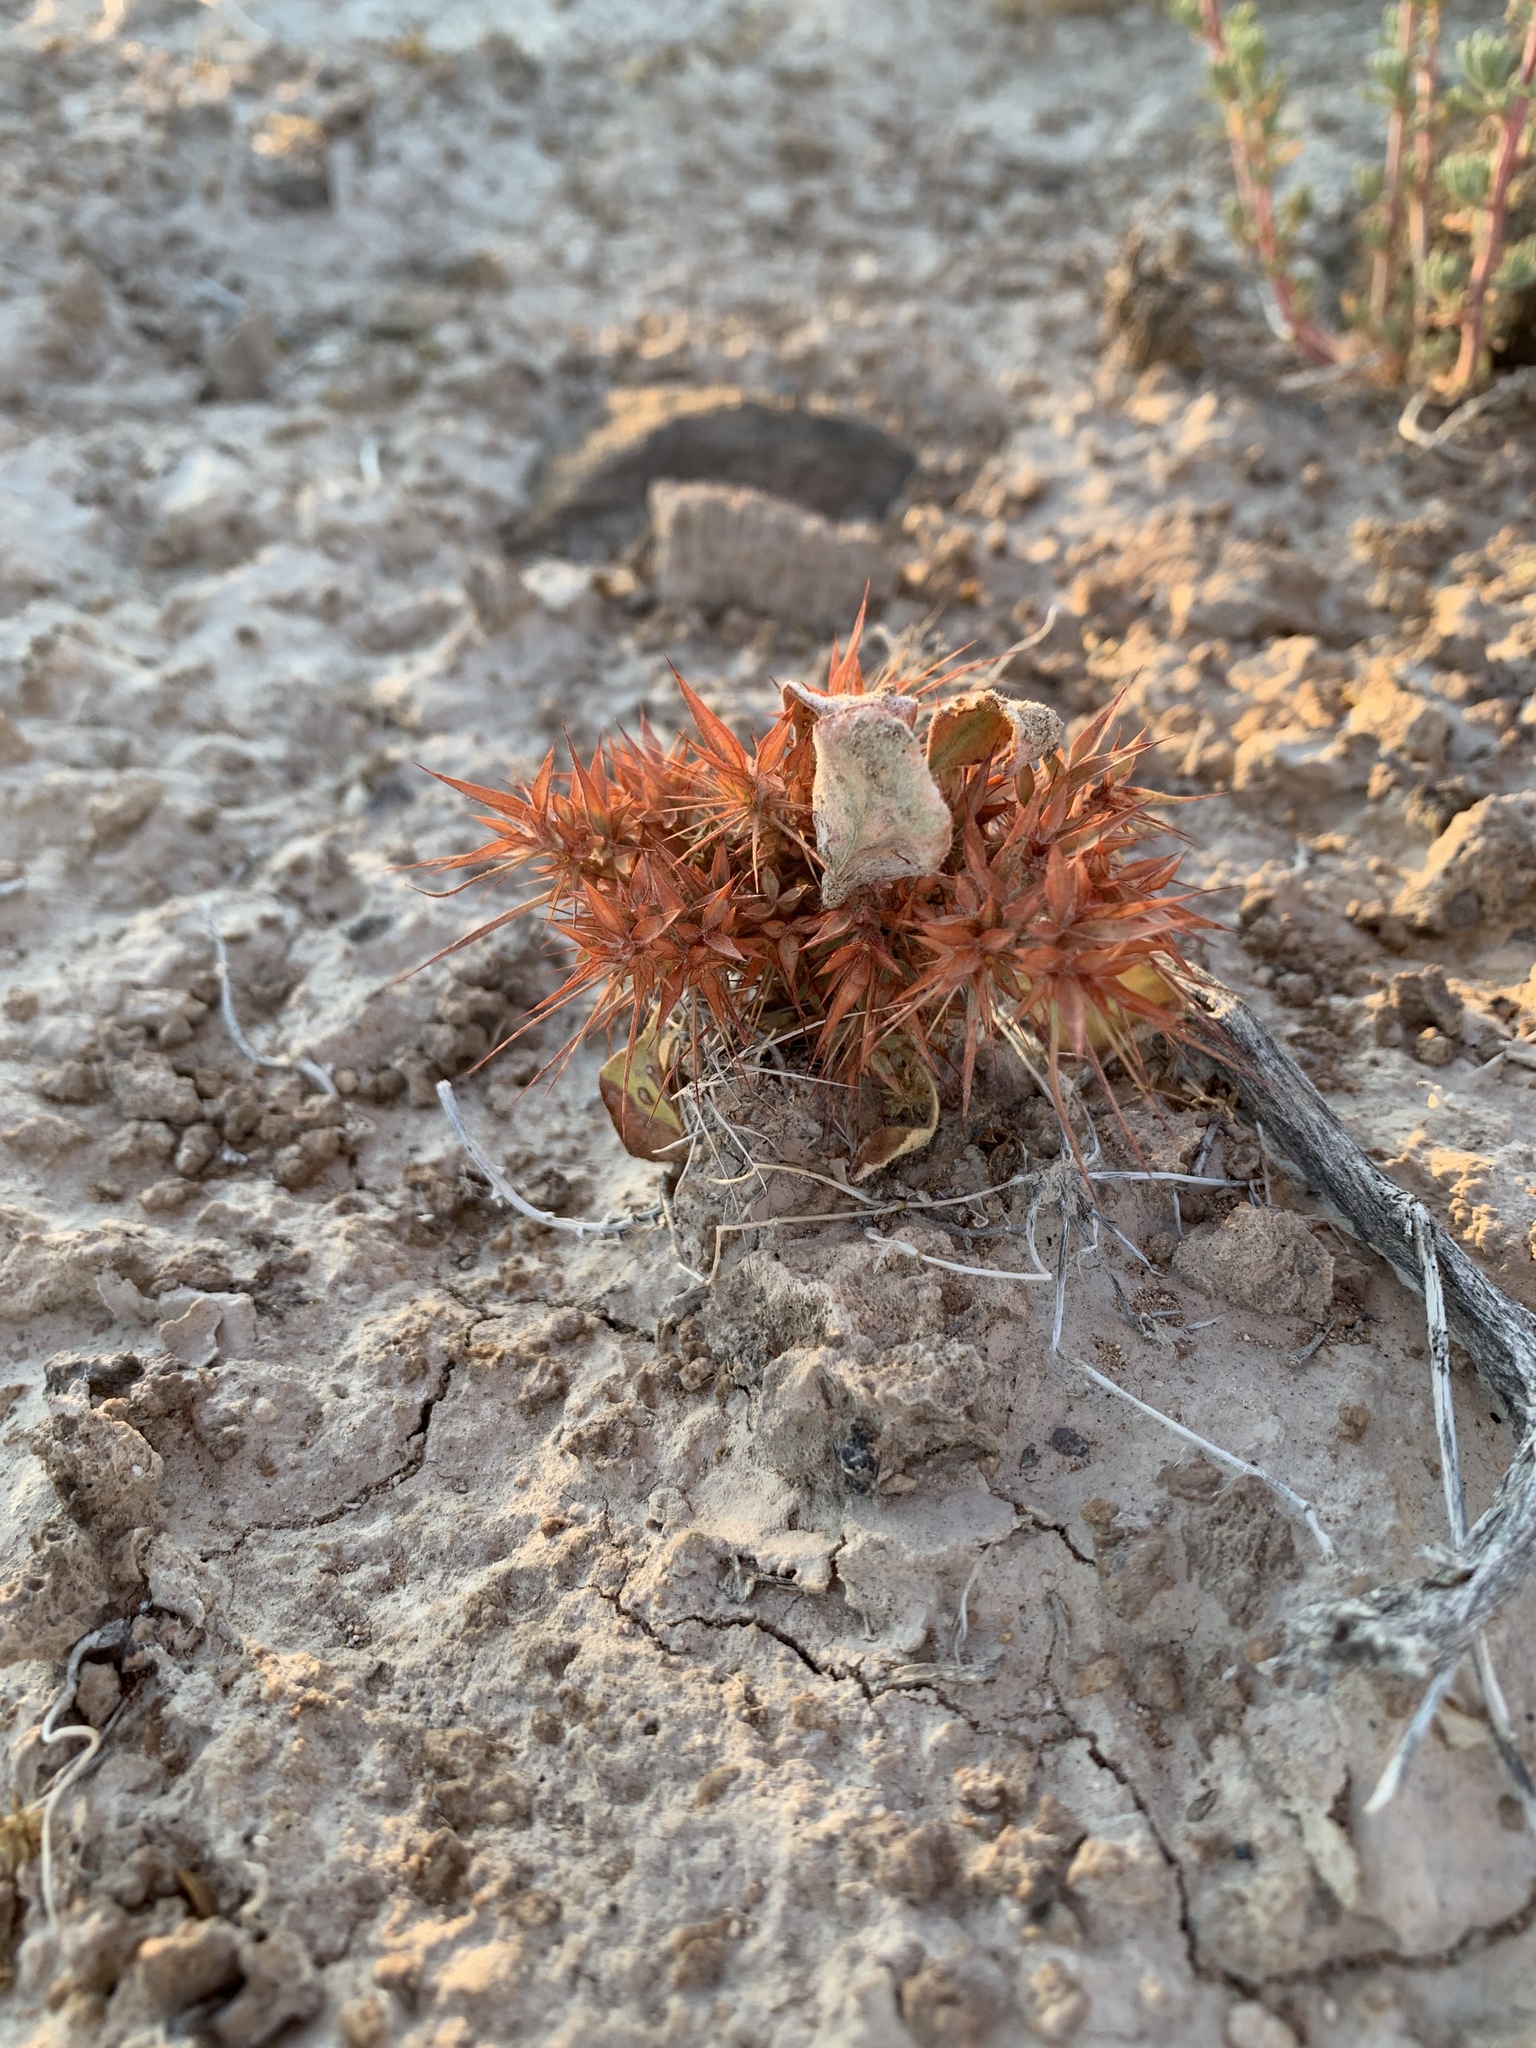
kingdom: Plantae
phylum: Tracheophyta
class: Magnoliopsida
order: Caryophyllales
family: Polygonaceae
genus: Chorizanthe
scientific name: Chorizanthe rigida
